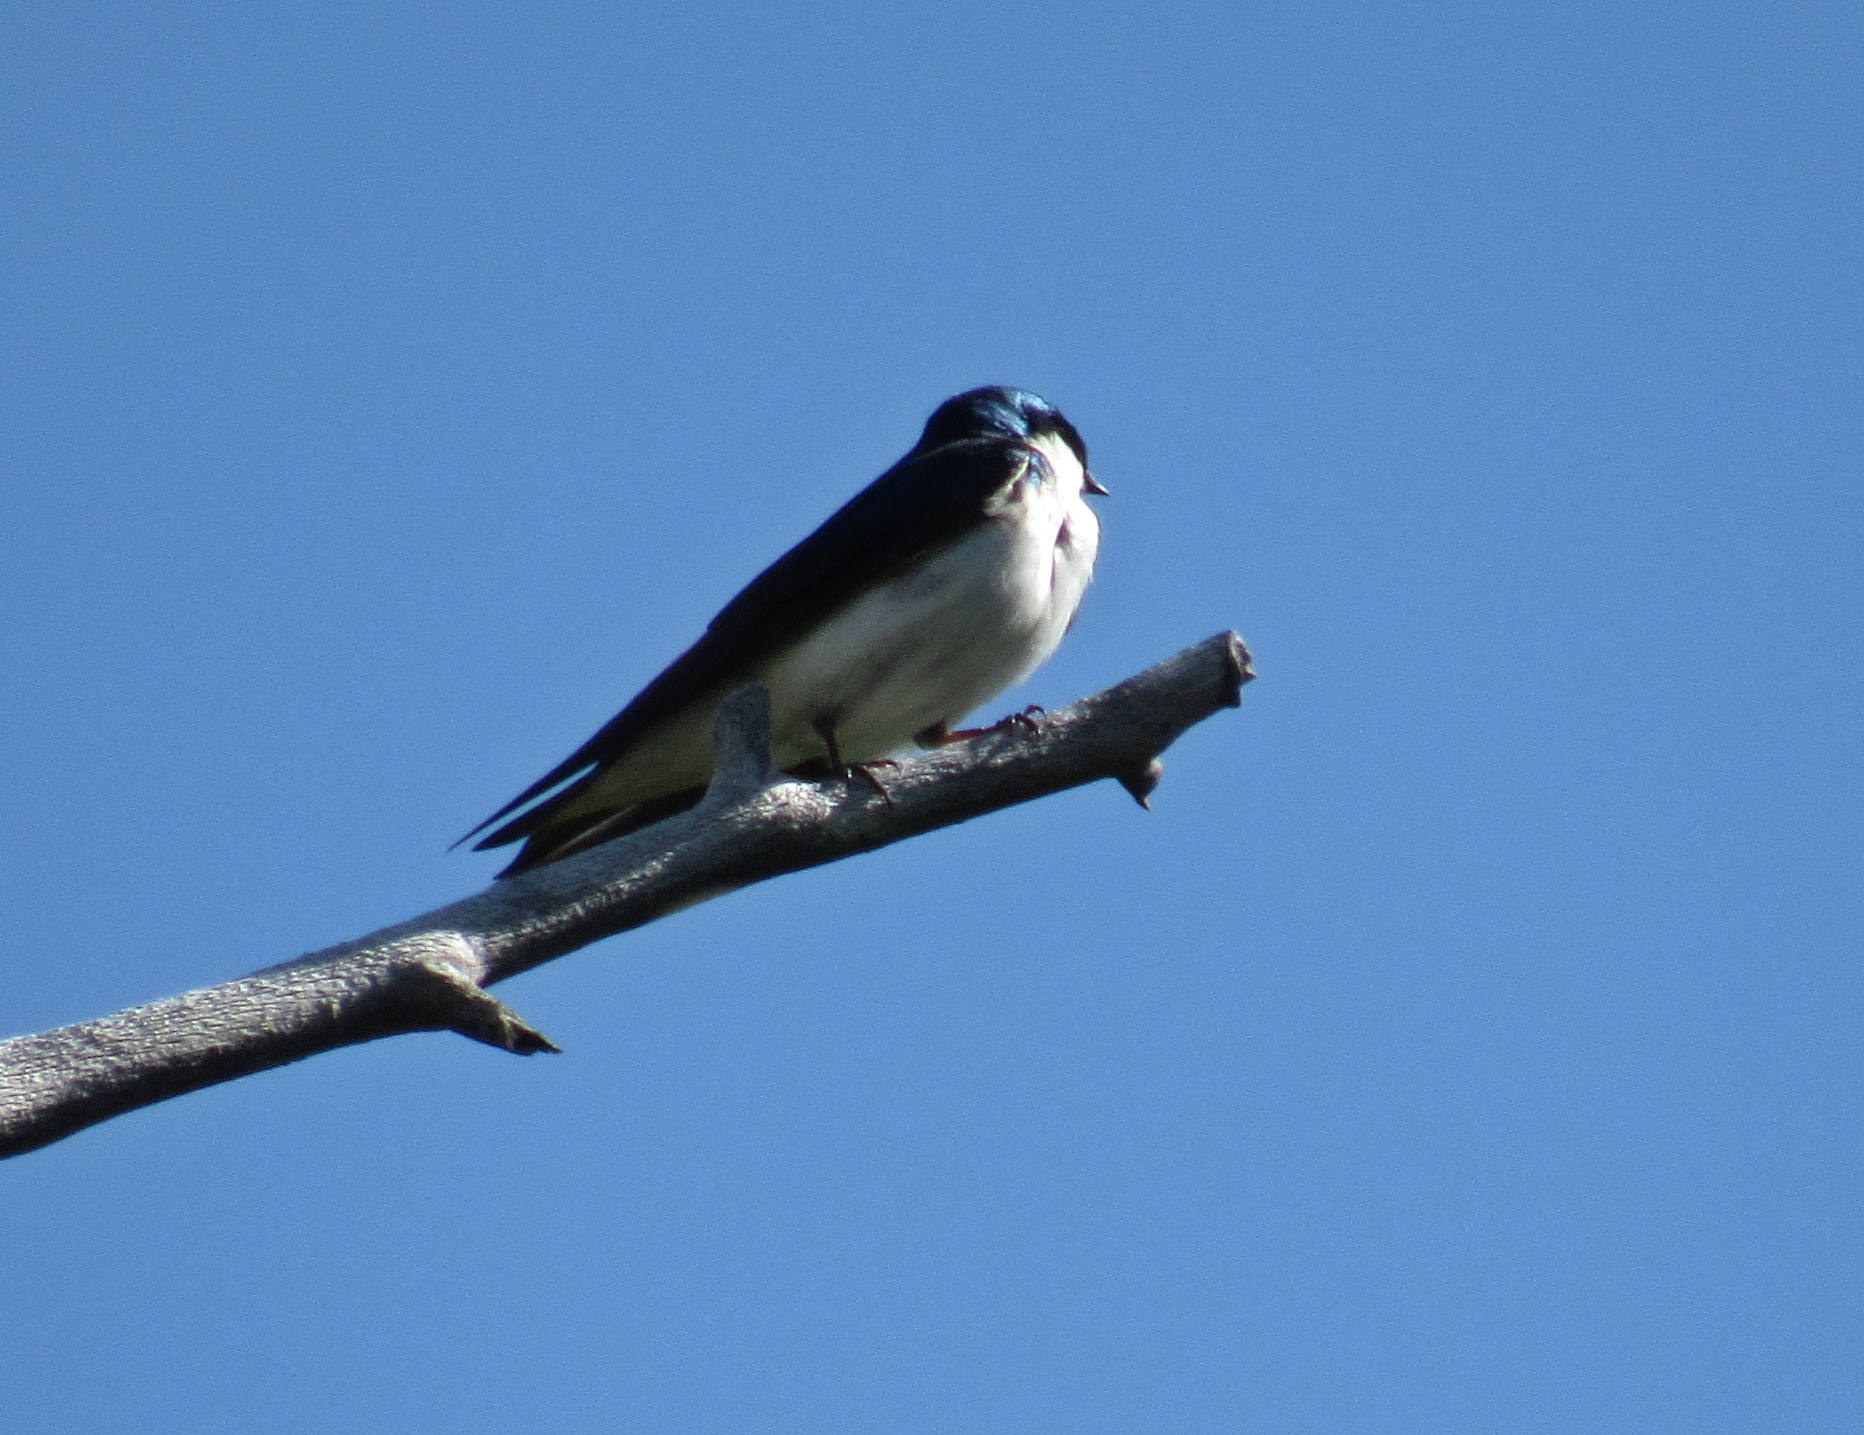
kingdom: Animalia
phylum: Chordata
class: Aves
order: Passeriformes
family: Hirundinidae
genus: Tachycineta
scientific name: Tachycineta bicolor
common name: Tree swallow
